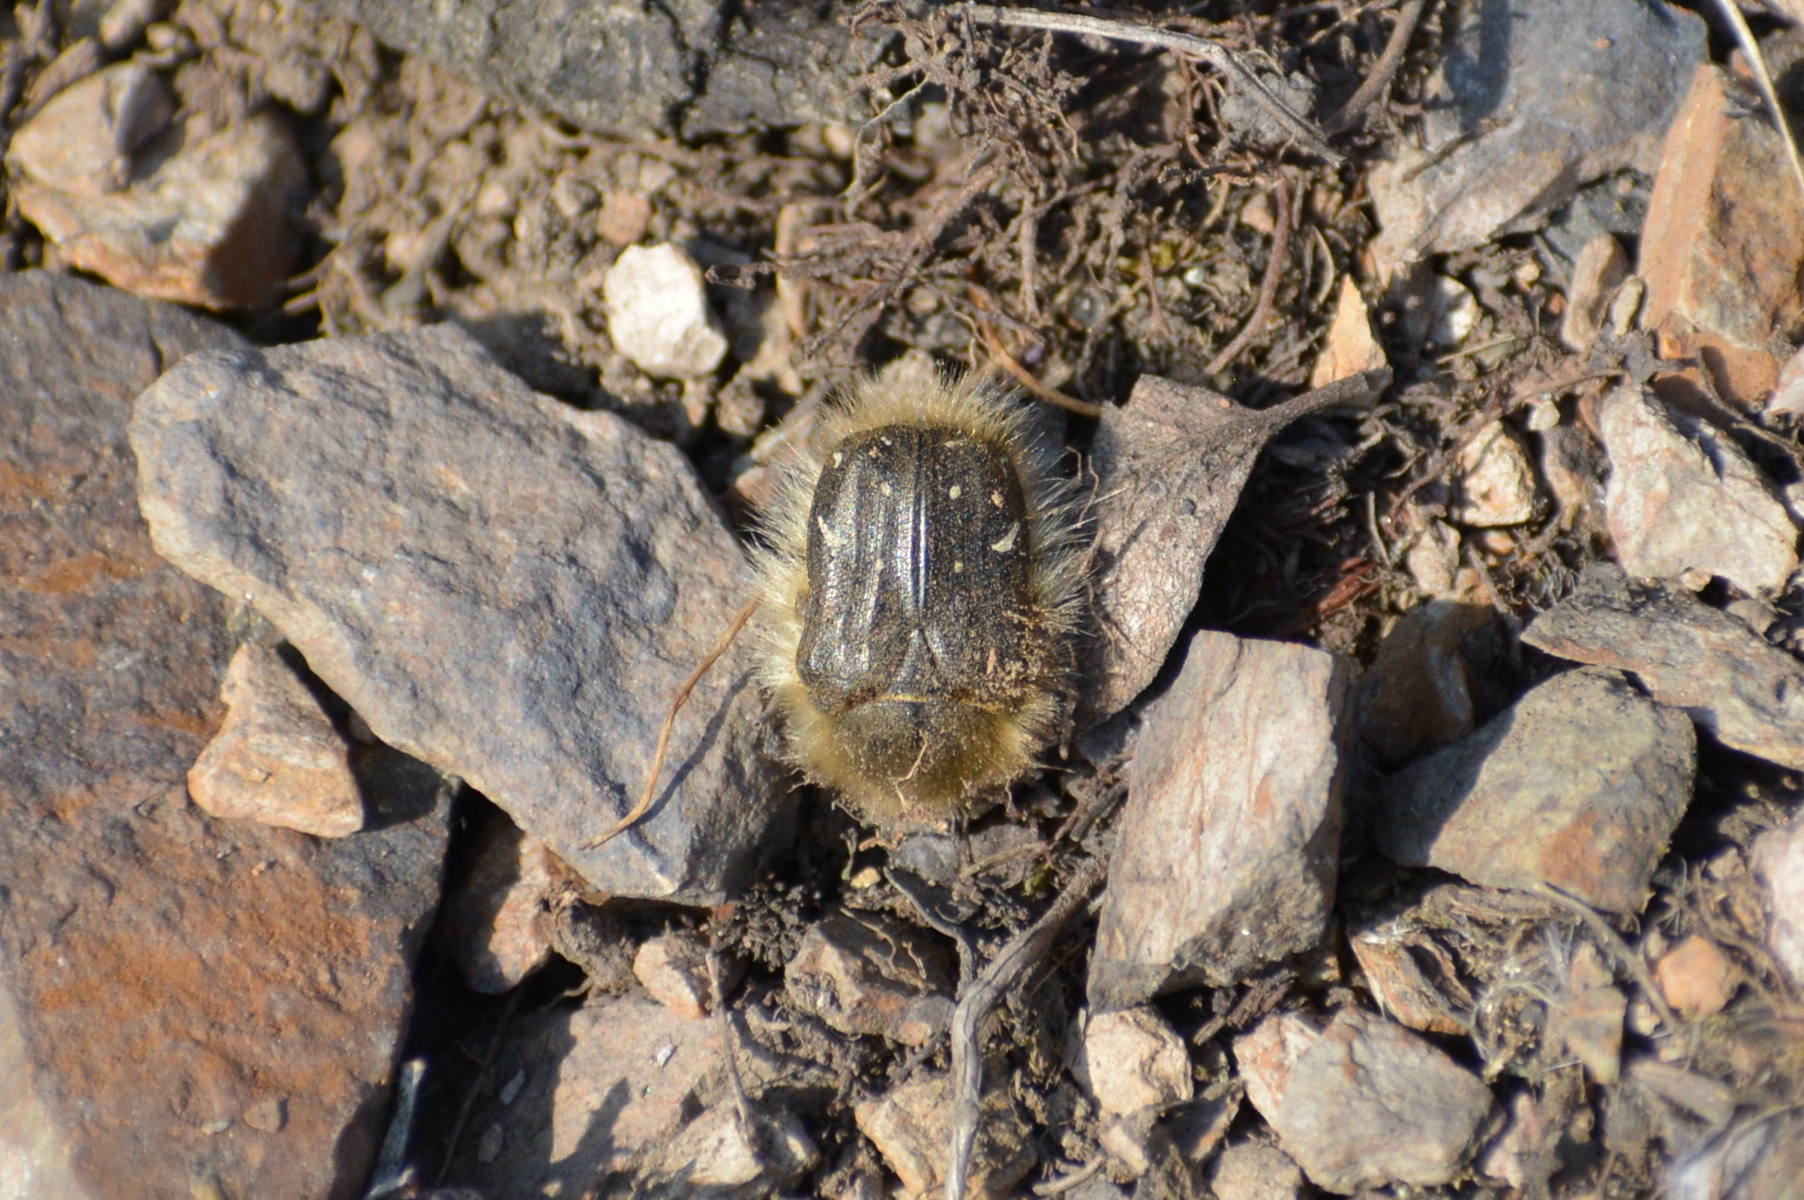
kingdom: Animalia
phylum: Arthropoda
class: Insecta
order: Coleoptera
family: Scarabaeidae
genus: Tropinota
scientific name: Tropinota hirta
